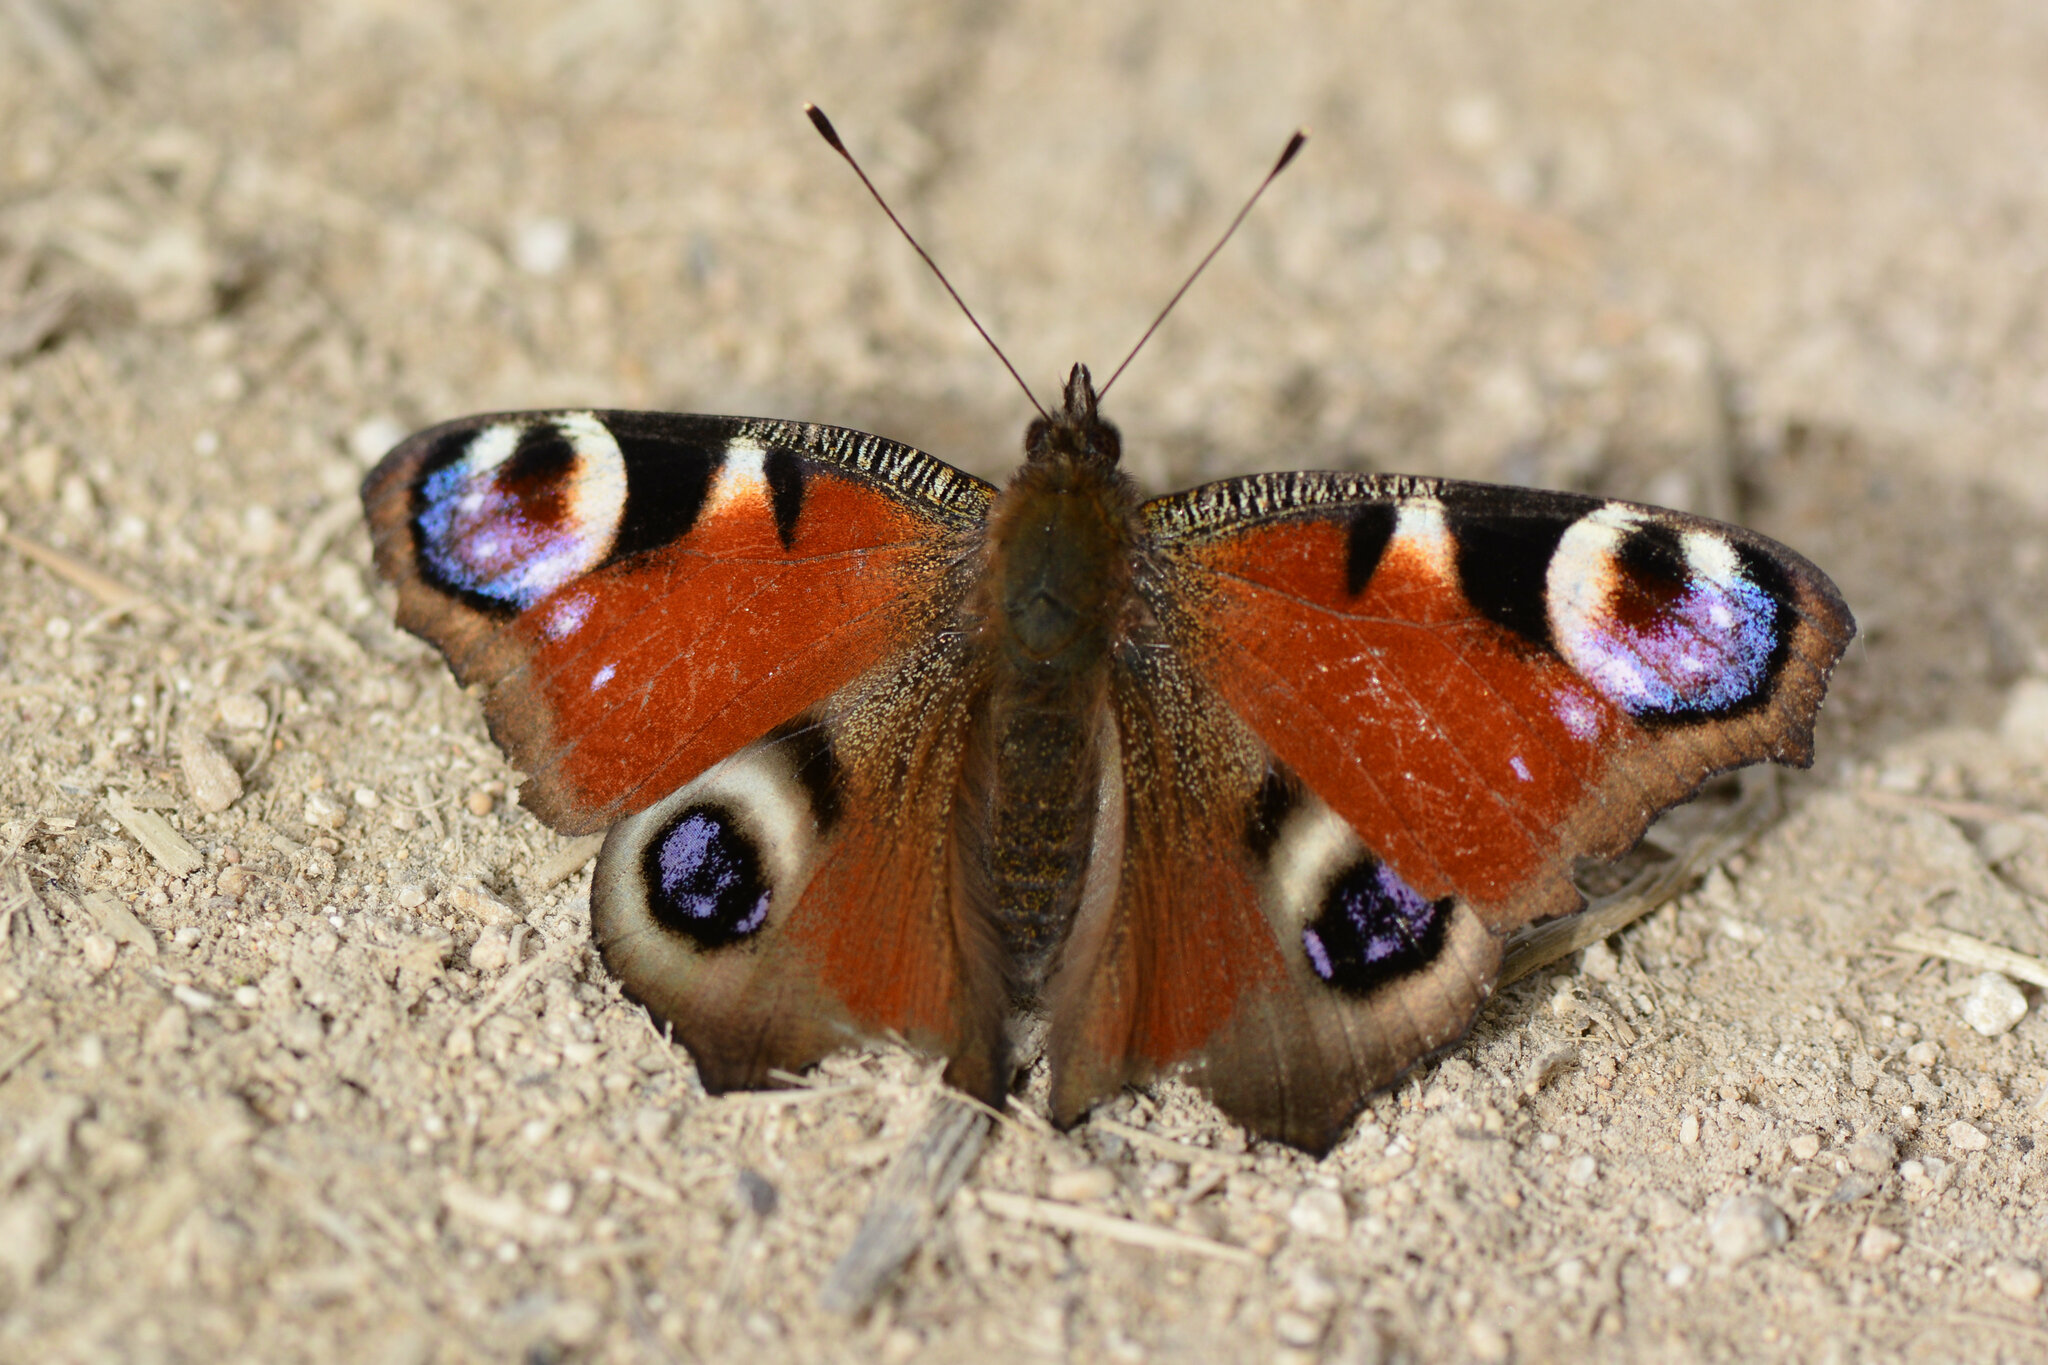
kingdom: Animalia
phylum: Arthropoda
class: Insecta
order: Lepidoptera
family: Nymphalidae
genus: Aglais
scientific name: Aglais io
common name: Peacock
